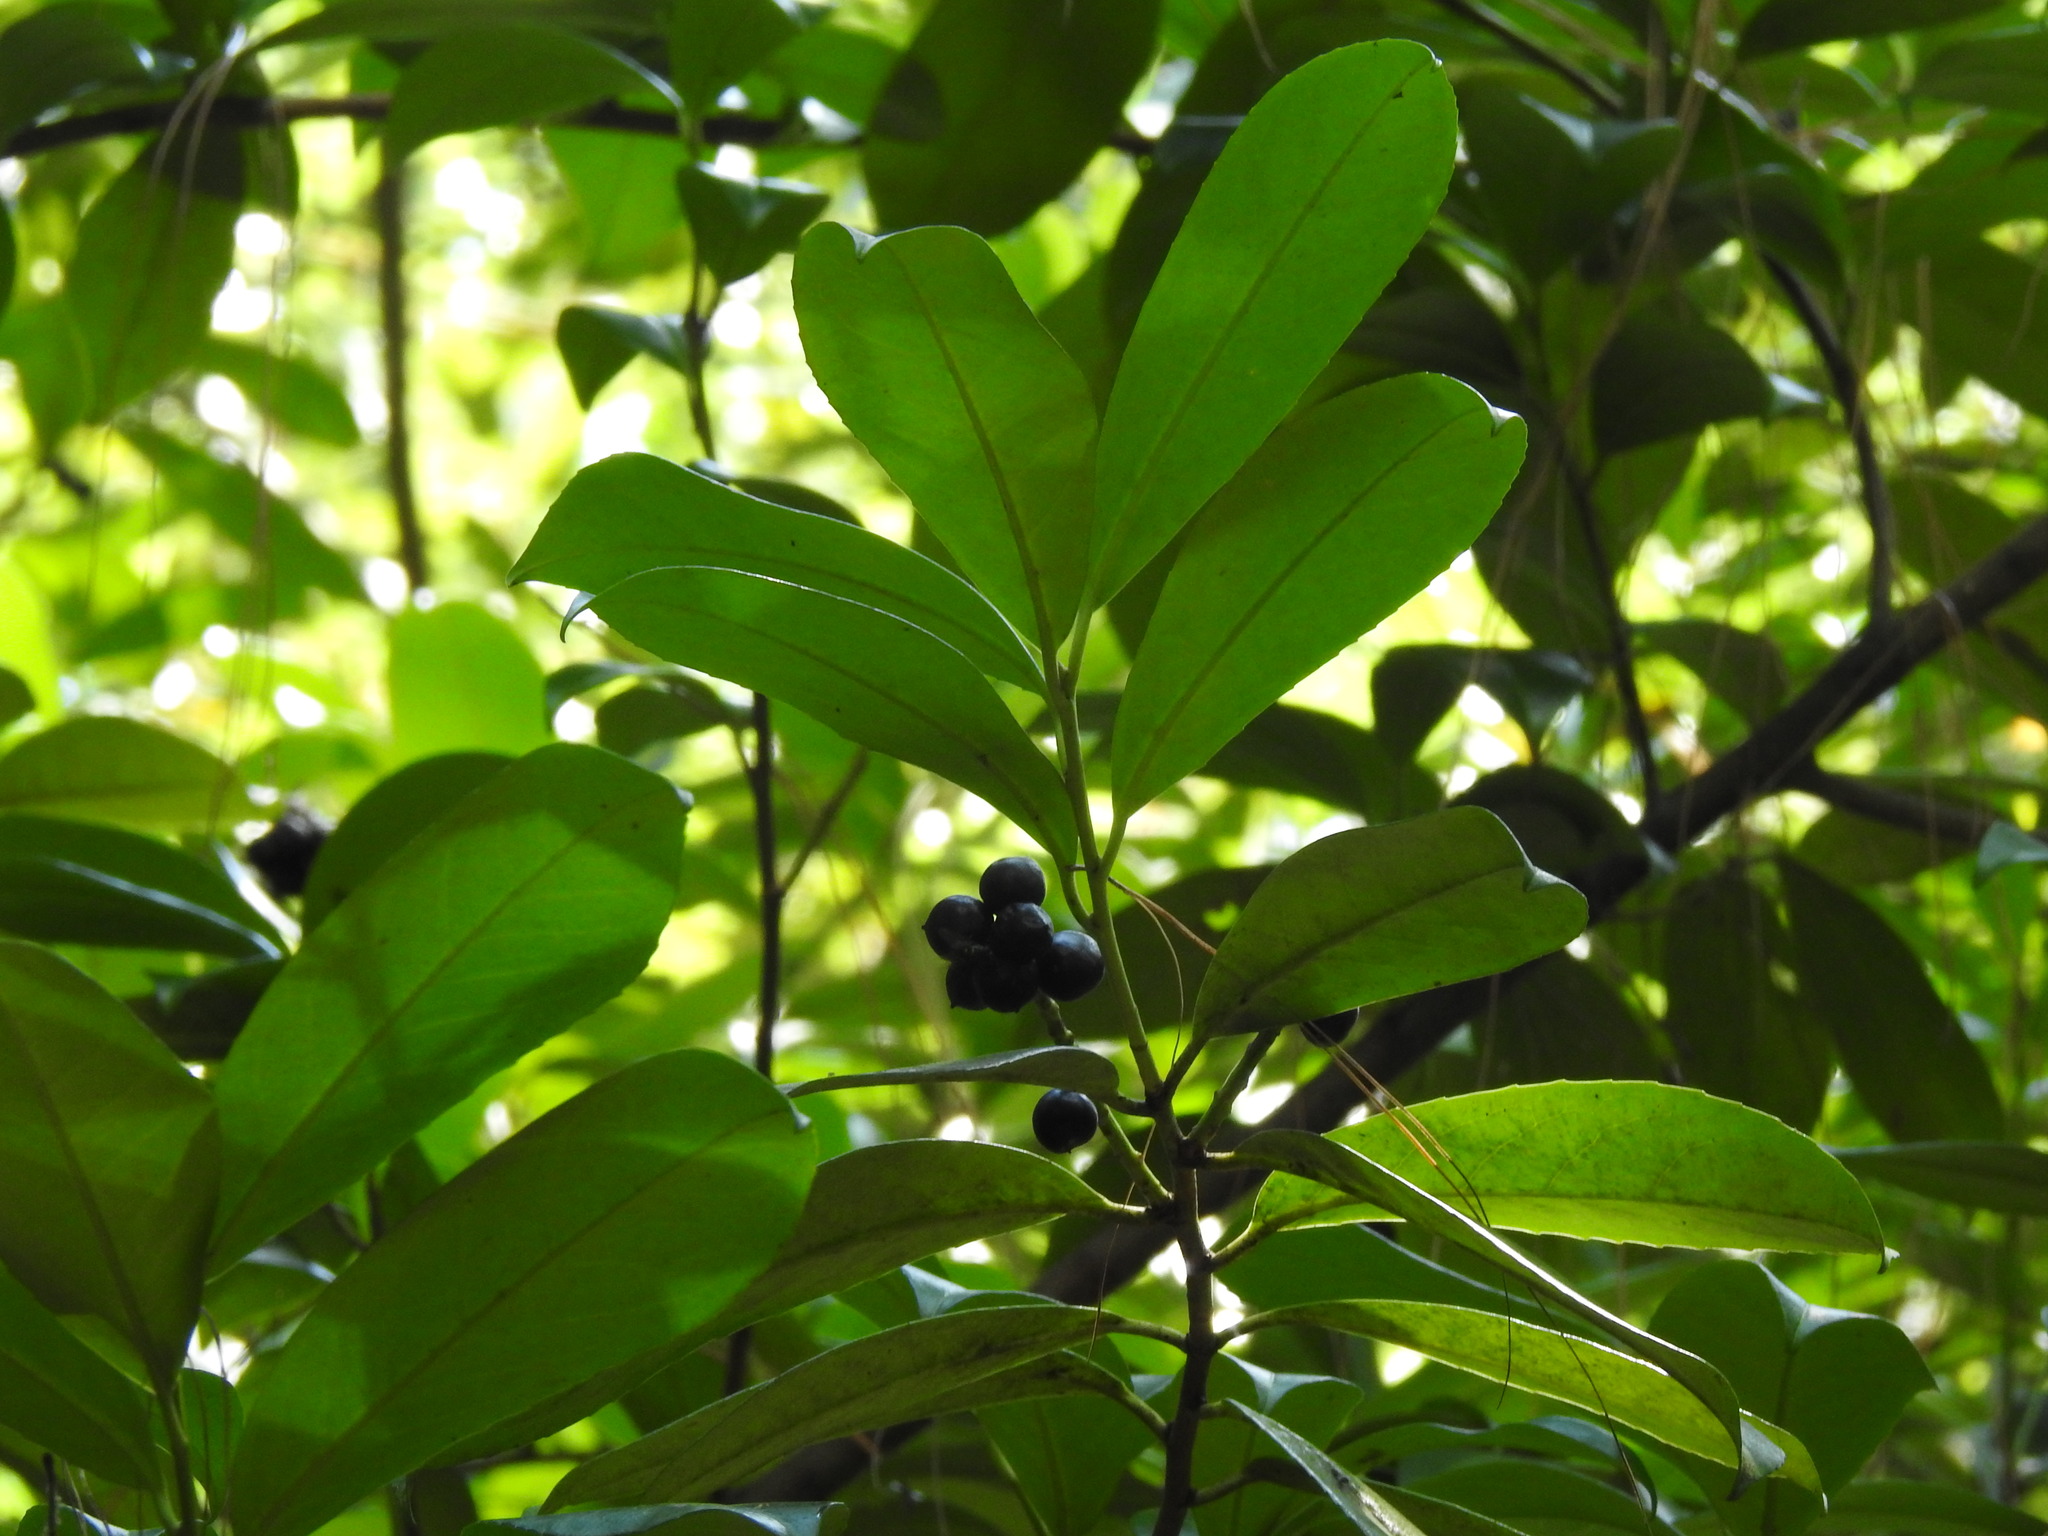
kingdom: Plantae
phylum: Tracheophyta
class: Magnoliopsida
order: Rosales
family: Rosaceae
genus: Prunus
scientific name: Prunus laurocerasus
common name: Cherry laurel
